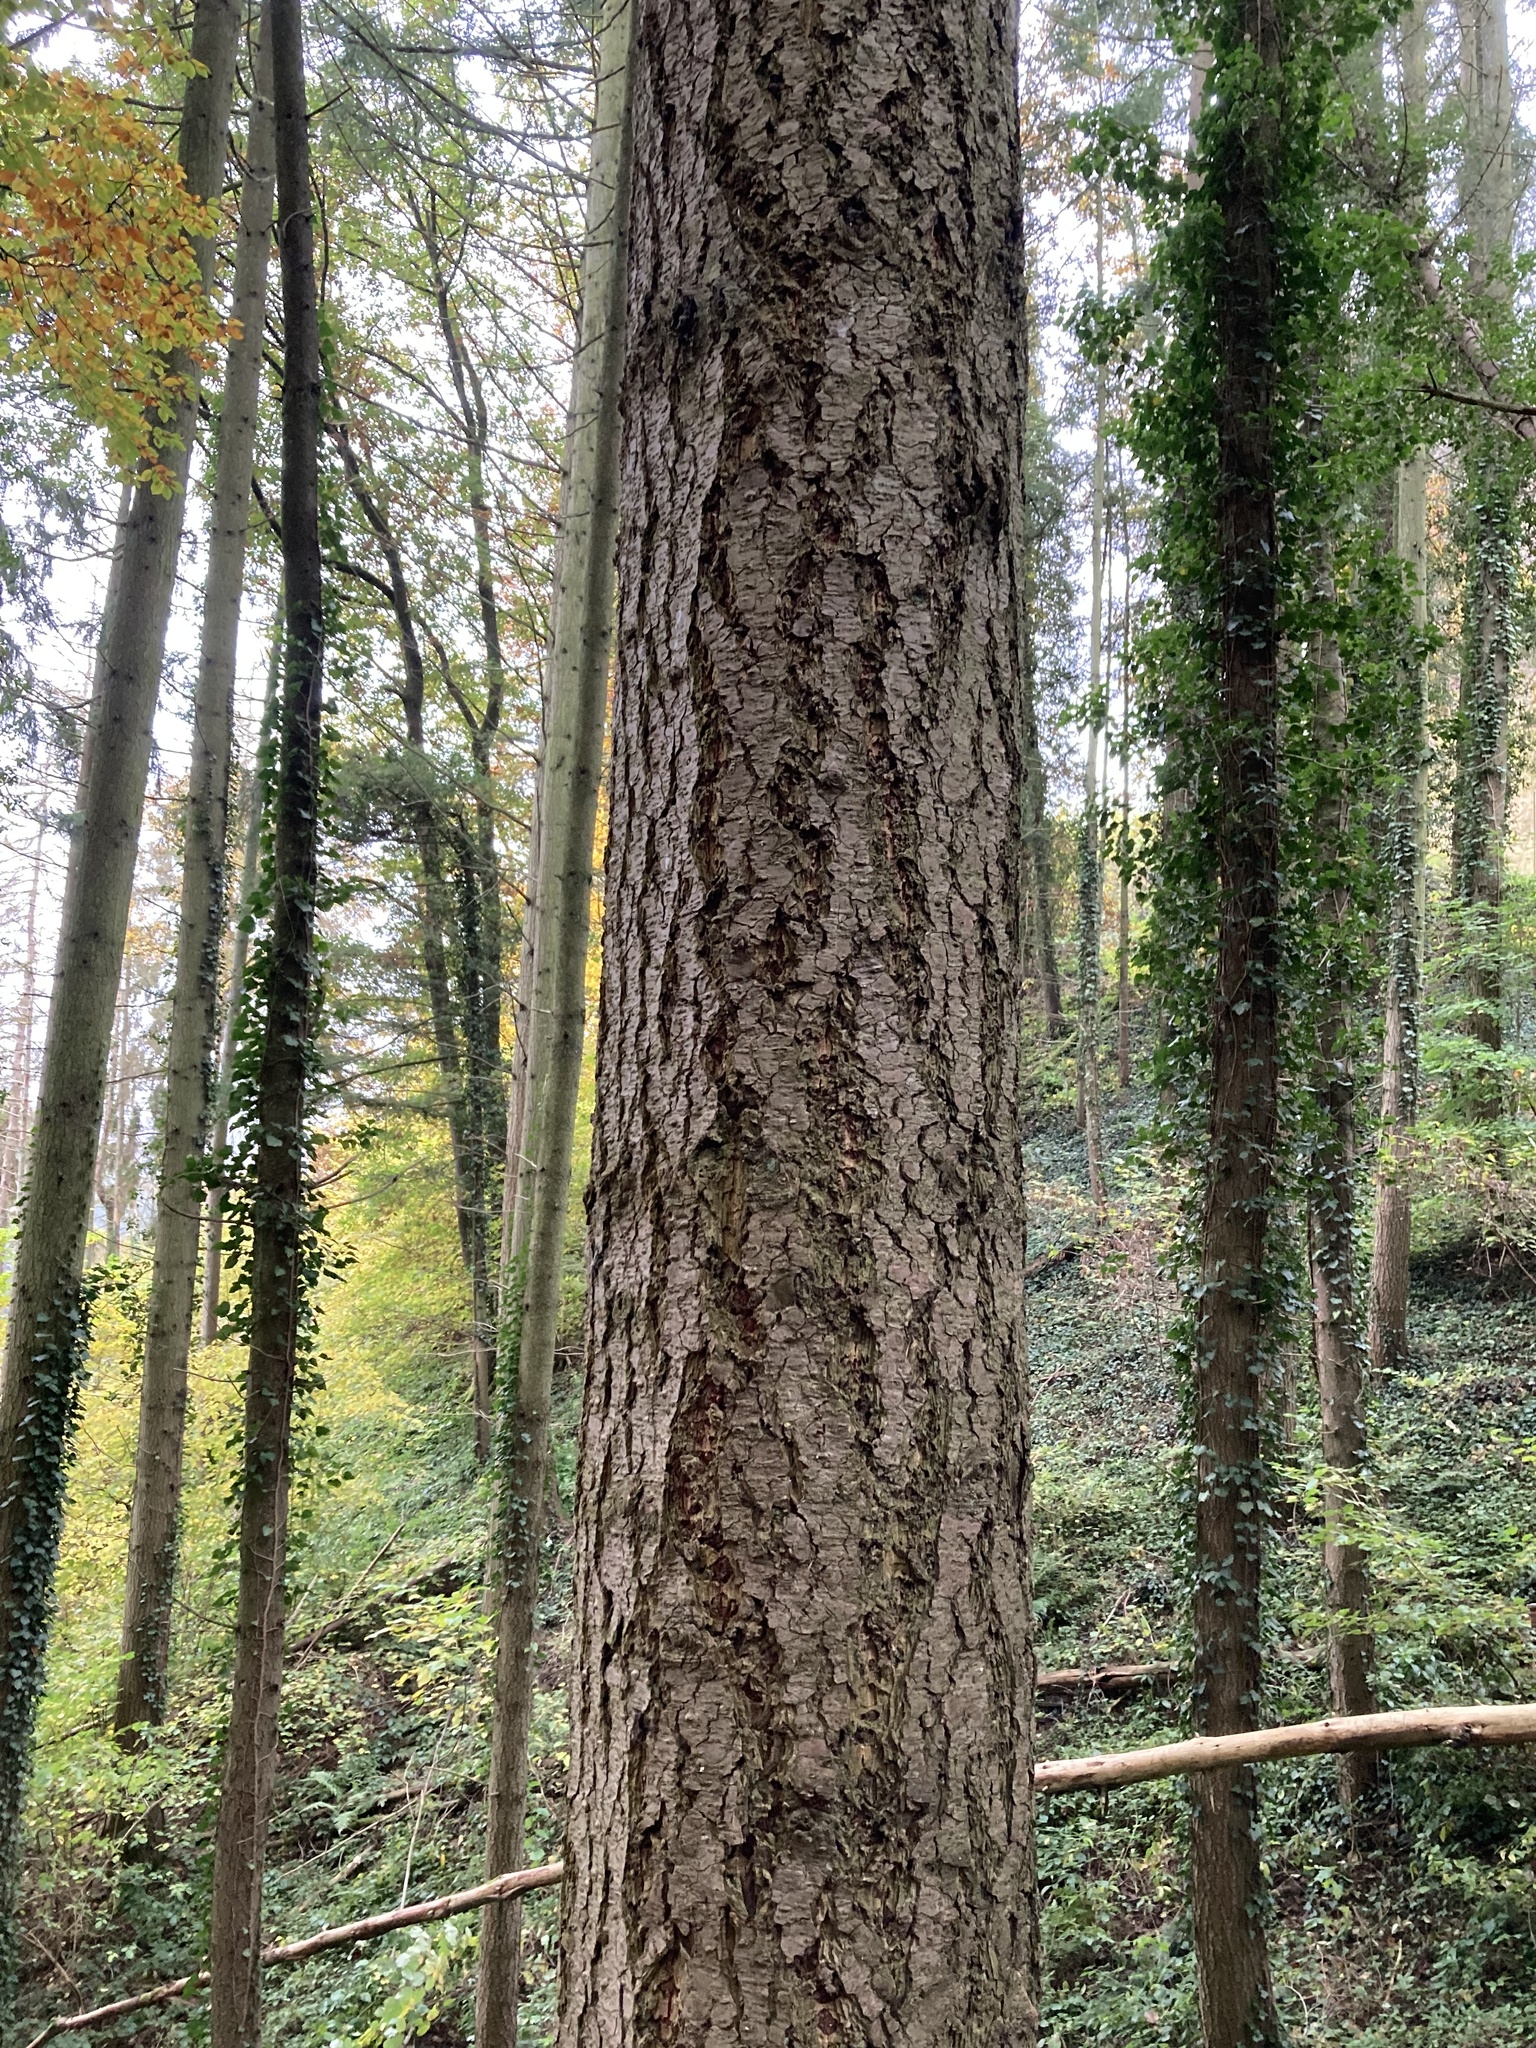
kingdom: Plantae
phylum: Tracheophyta
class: Pinopsida
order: Pinales
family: Pinaceae
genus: Pseudotsuga
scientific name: Pseudotsuga menziesii
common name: Douglas fir
